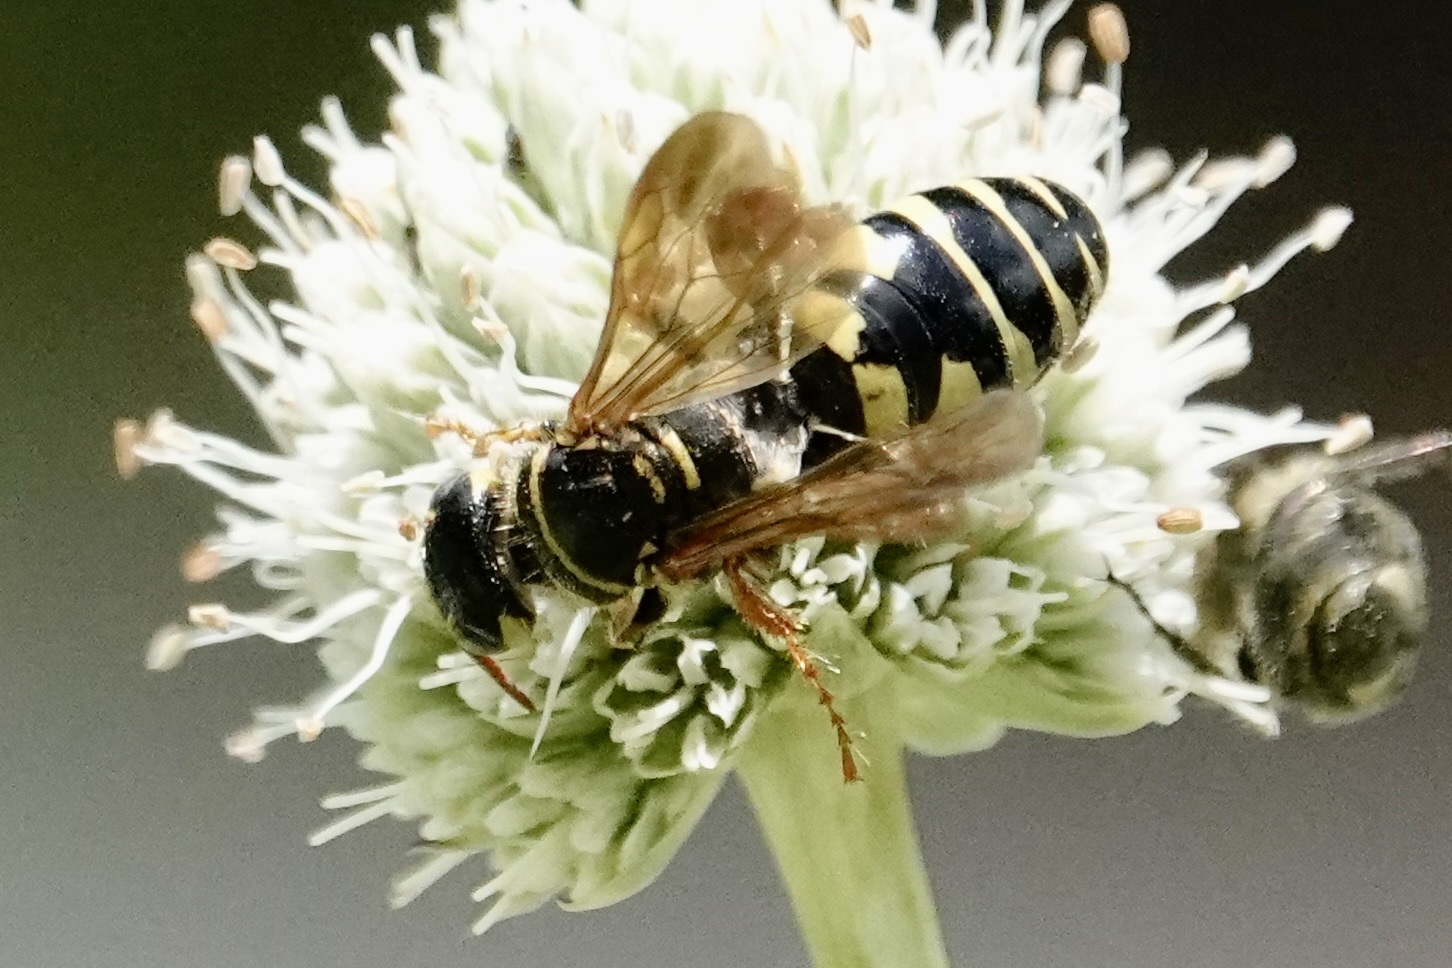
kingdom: Animalia
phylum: Arthropoda
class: Insecta
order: Hymenoptera
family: Tiphiidae
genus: Myzinum
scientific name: Myzinum quinquecinctum
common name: Five-banded thynnid wasp
